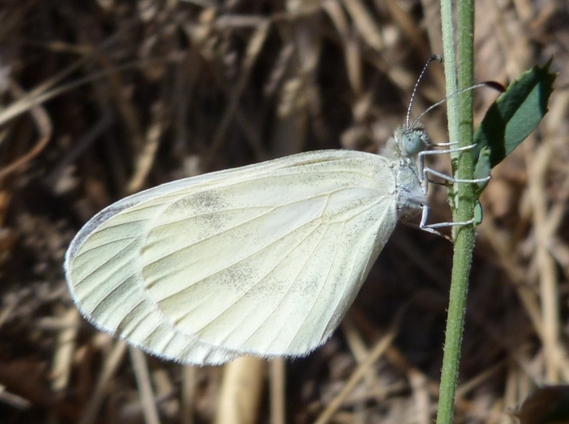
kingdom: Animalia
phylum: Arthropoda
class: Insecta
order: Lepidoptera
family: Pieridae
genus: Leptidea
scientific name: Leptidea sinapis
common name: Wood white
